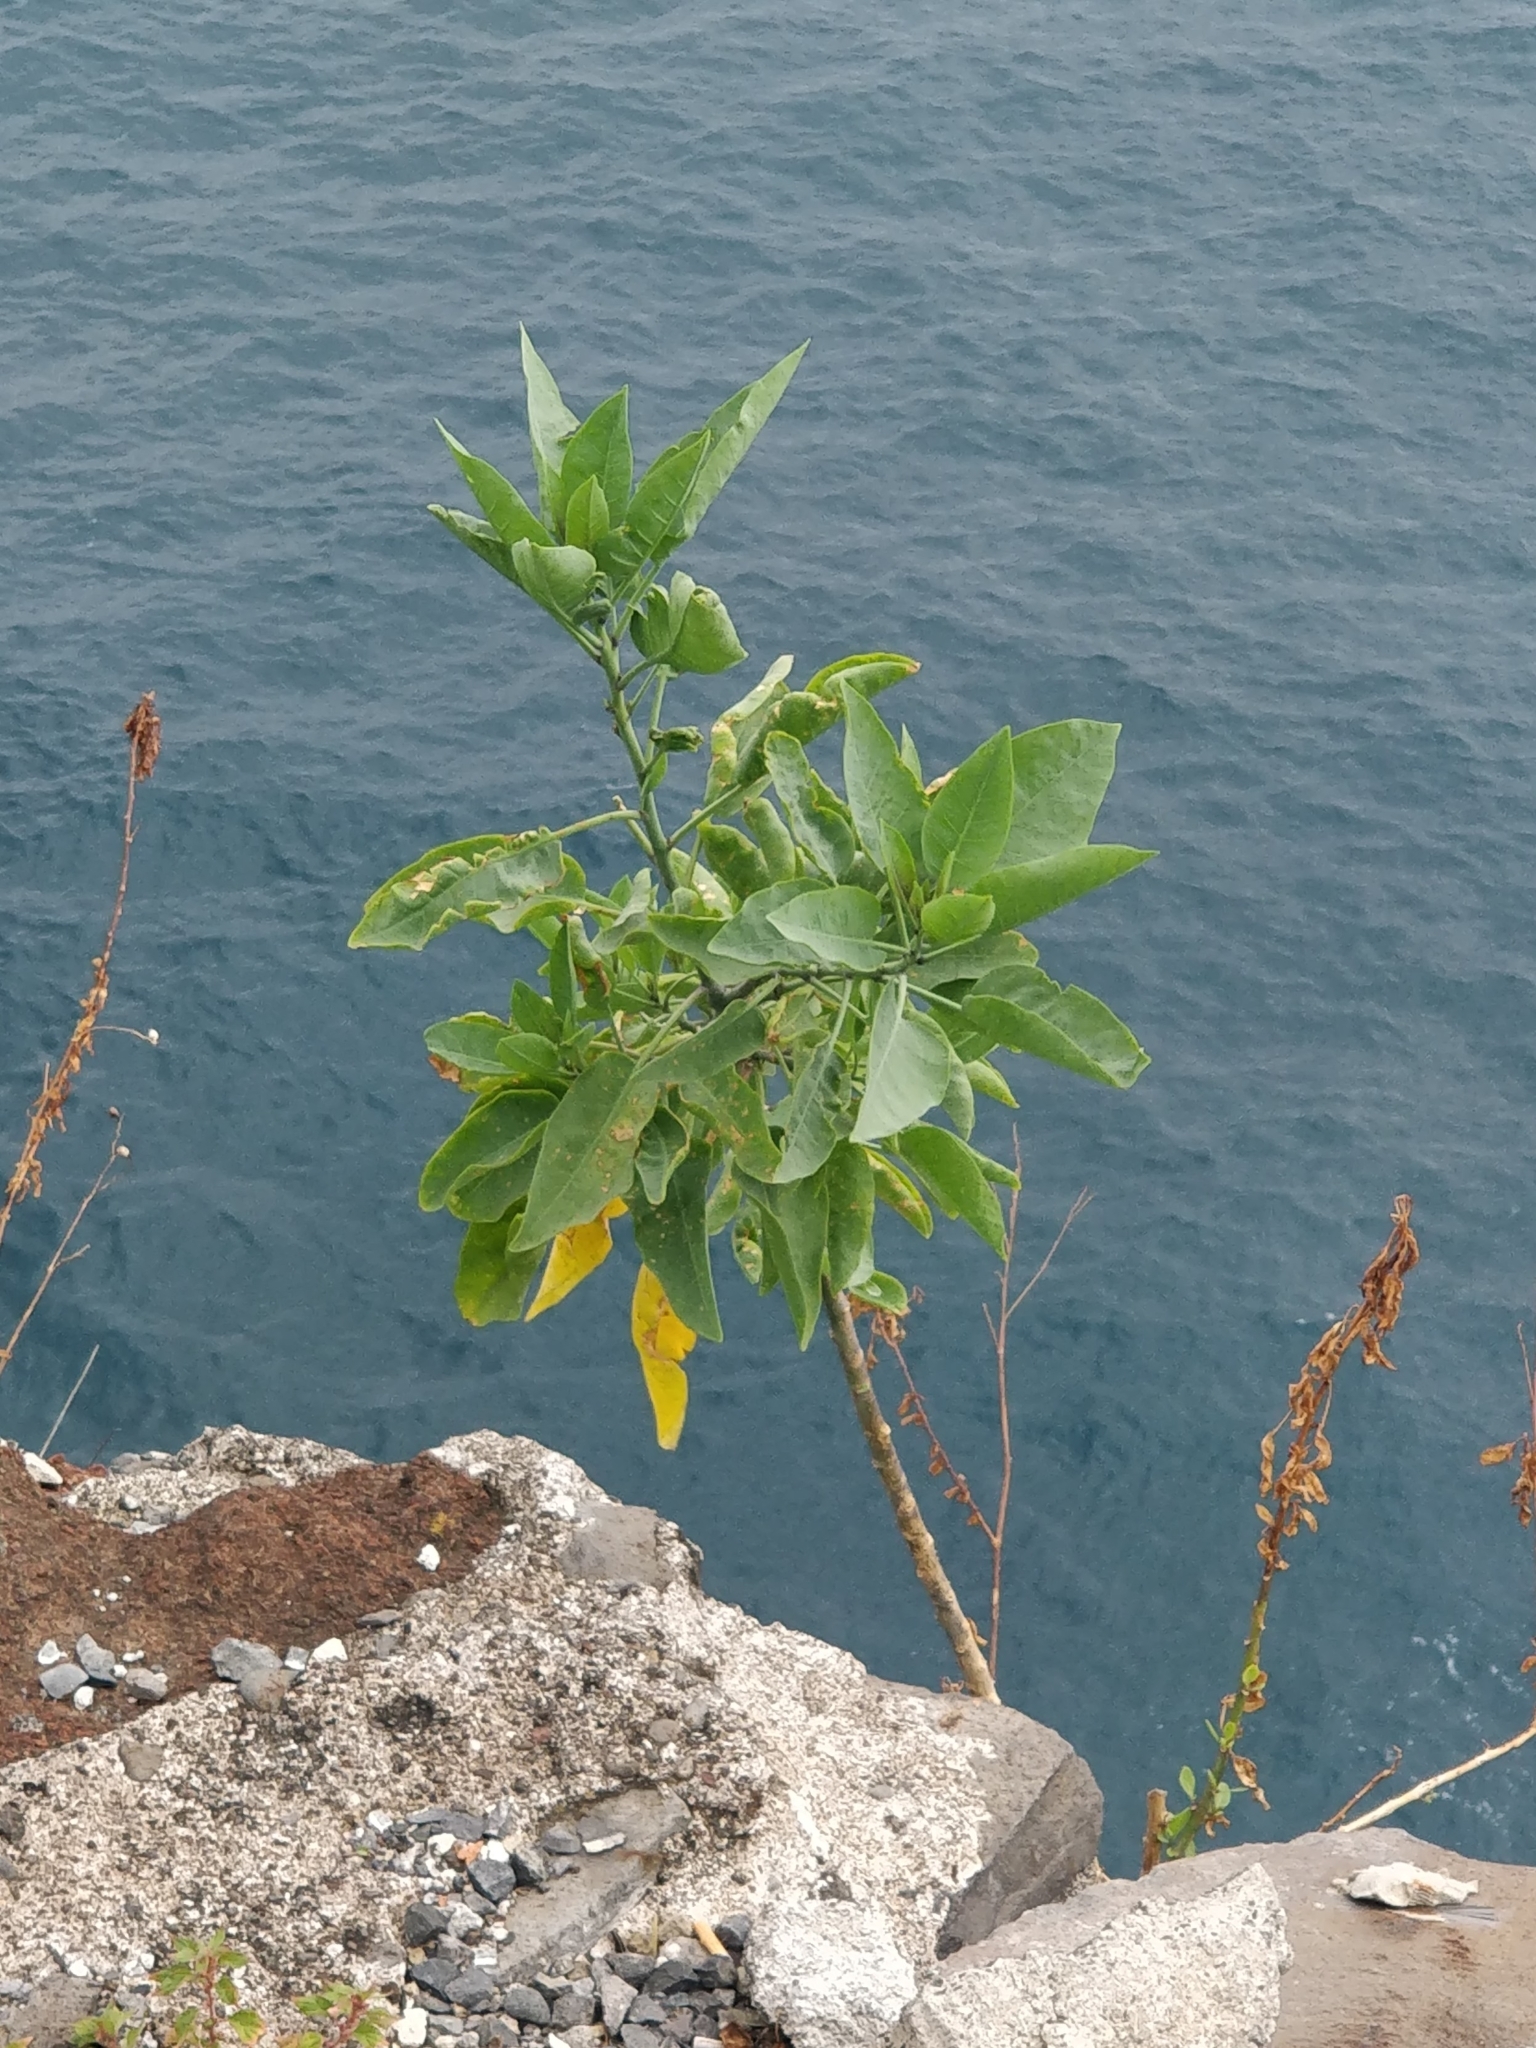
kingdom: Plantae
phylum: Tracheophyta
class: Magnoliopsida
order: Solanales
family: Solanaceae
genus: Nicotiana
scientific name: Nicotiana glauca
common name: Tree tobacco
